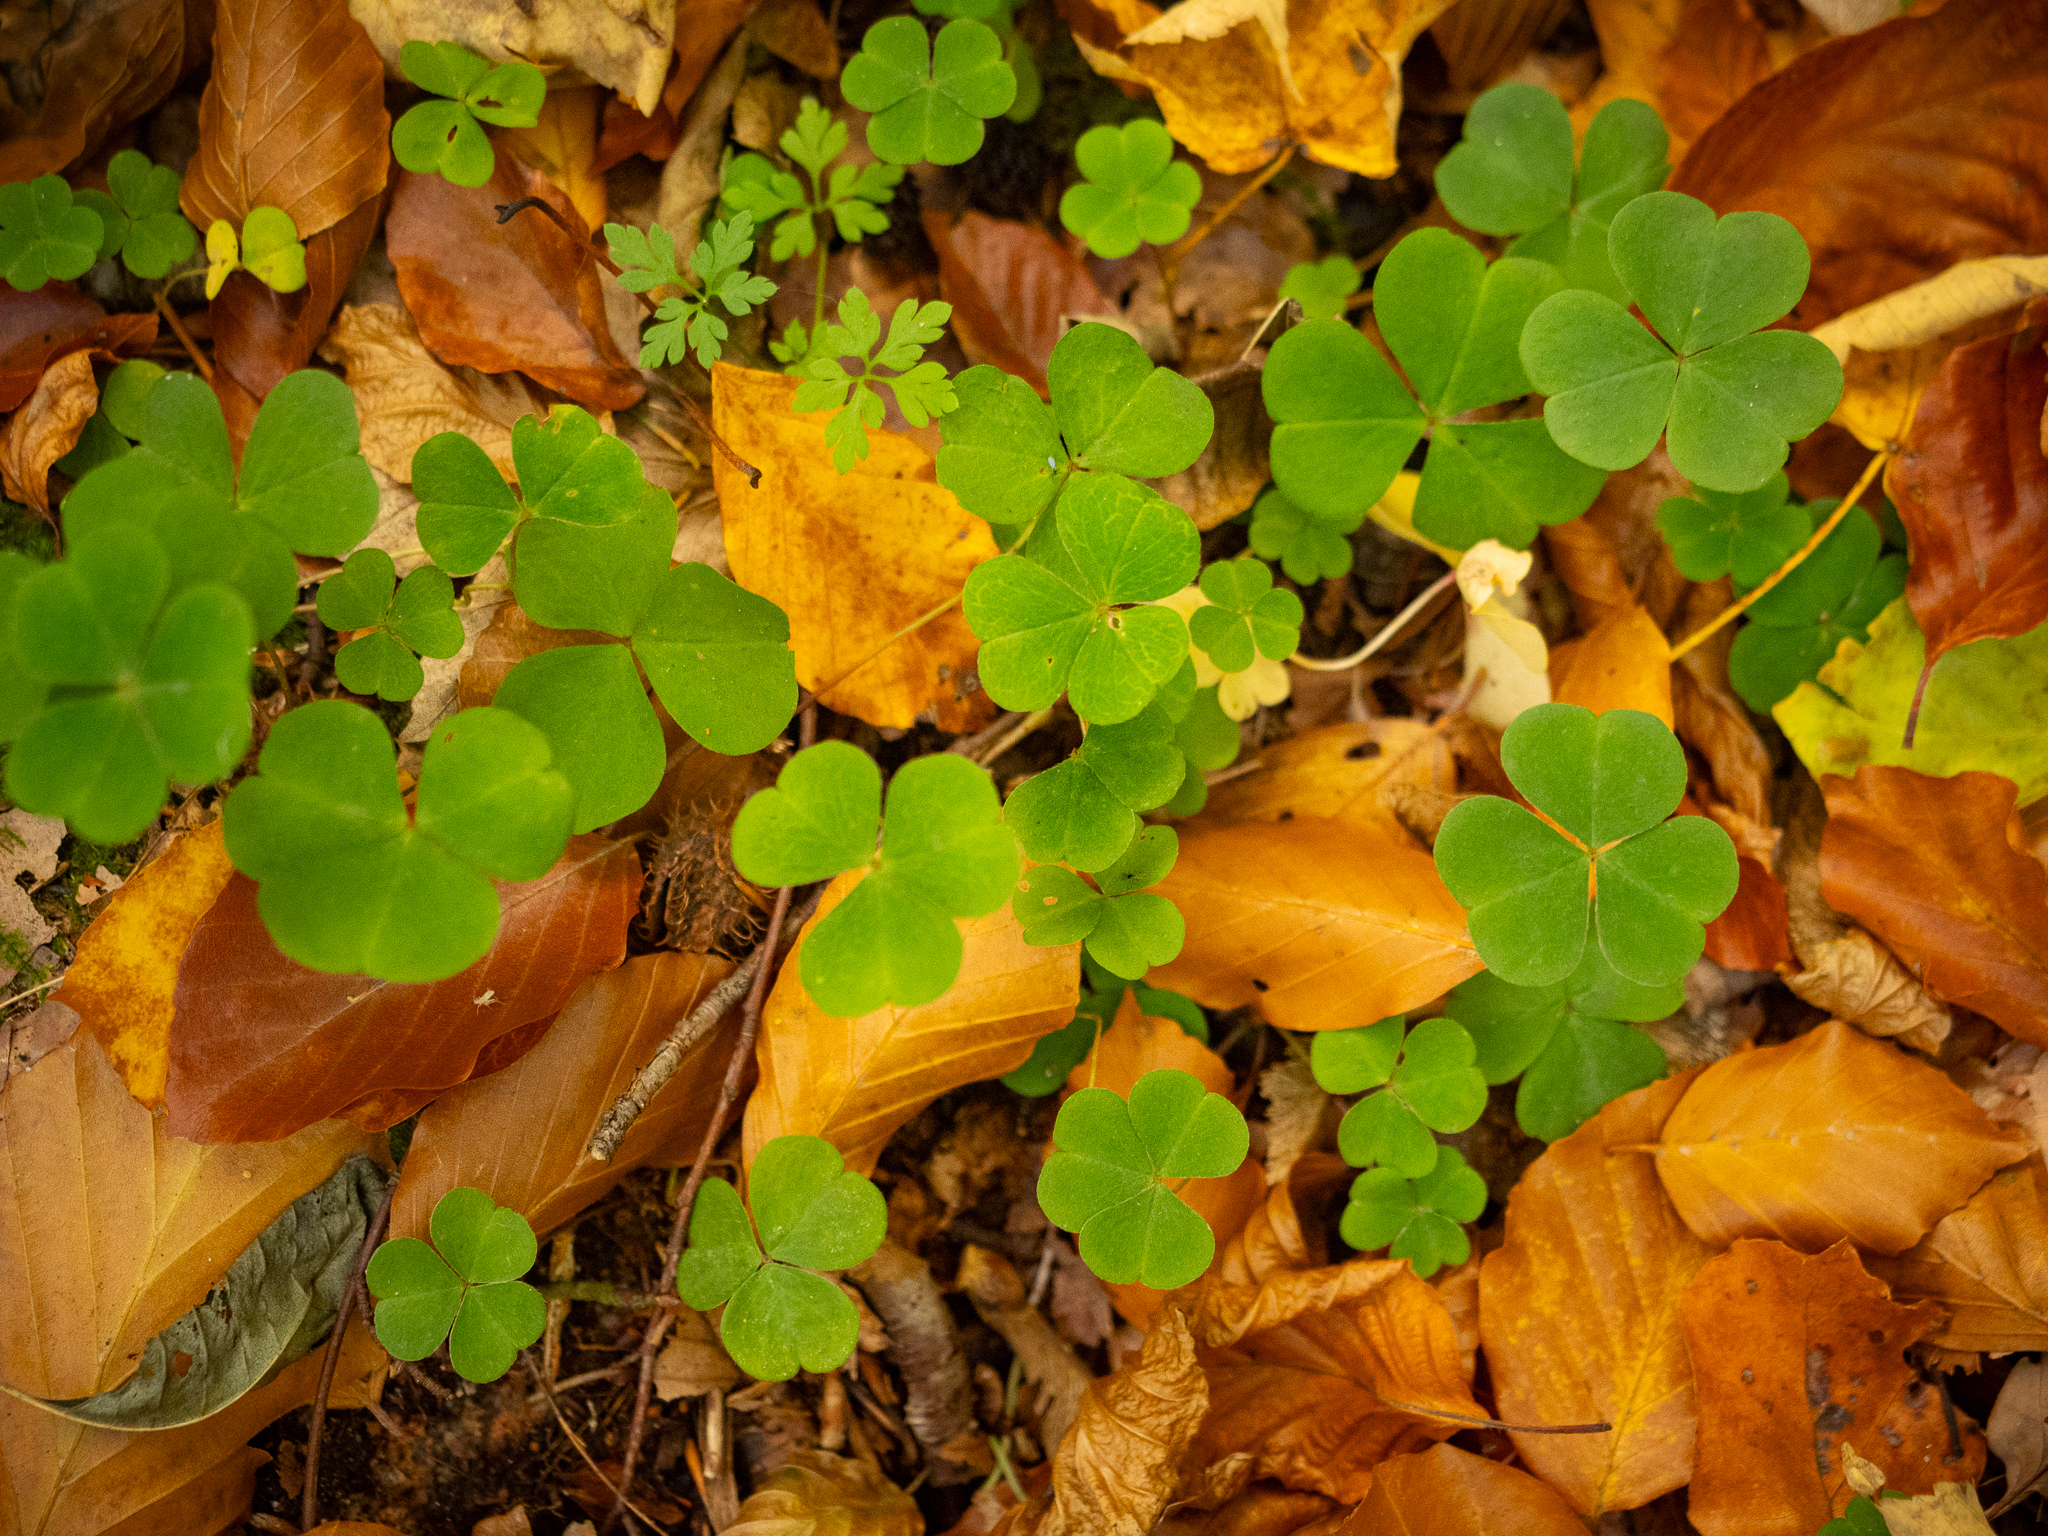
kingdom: Plantae
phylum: Tracheophyta
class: Magnoliopsida
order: Oxalidales
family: Oxalidaceae
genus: Oxalis
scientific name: Oxalis acetosella
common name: Wood-sorrel
